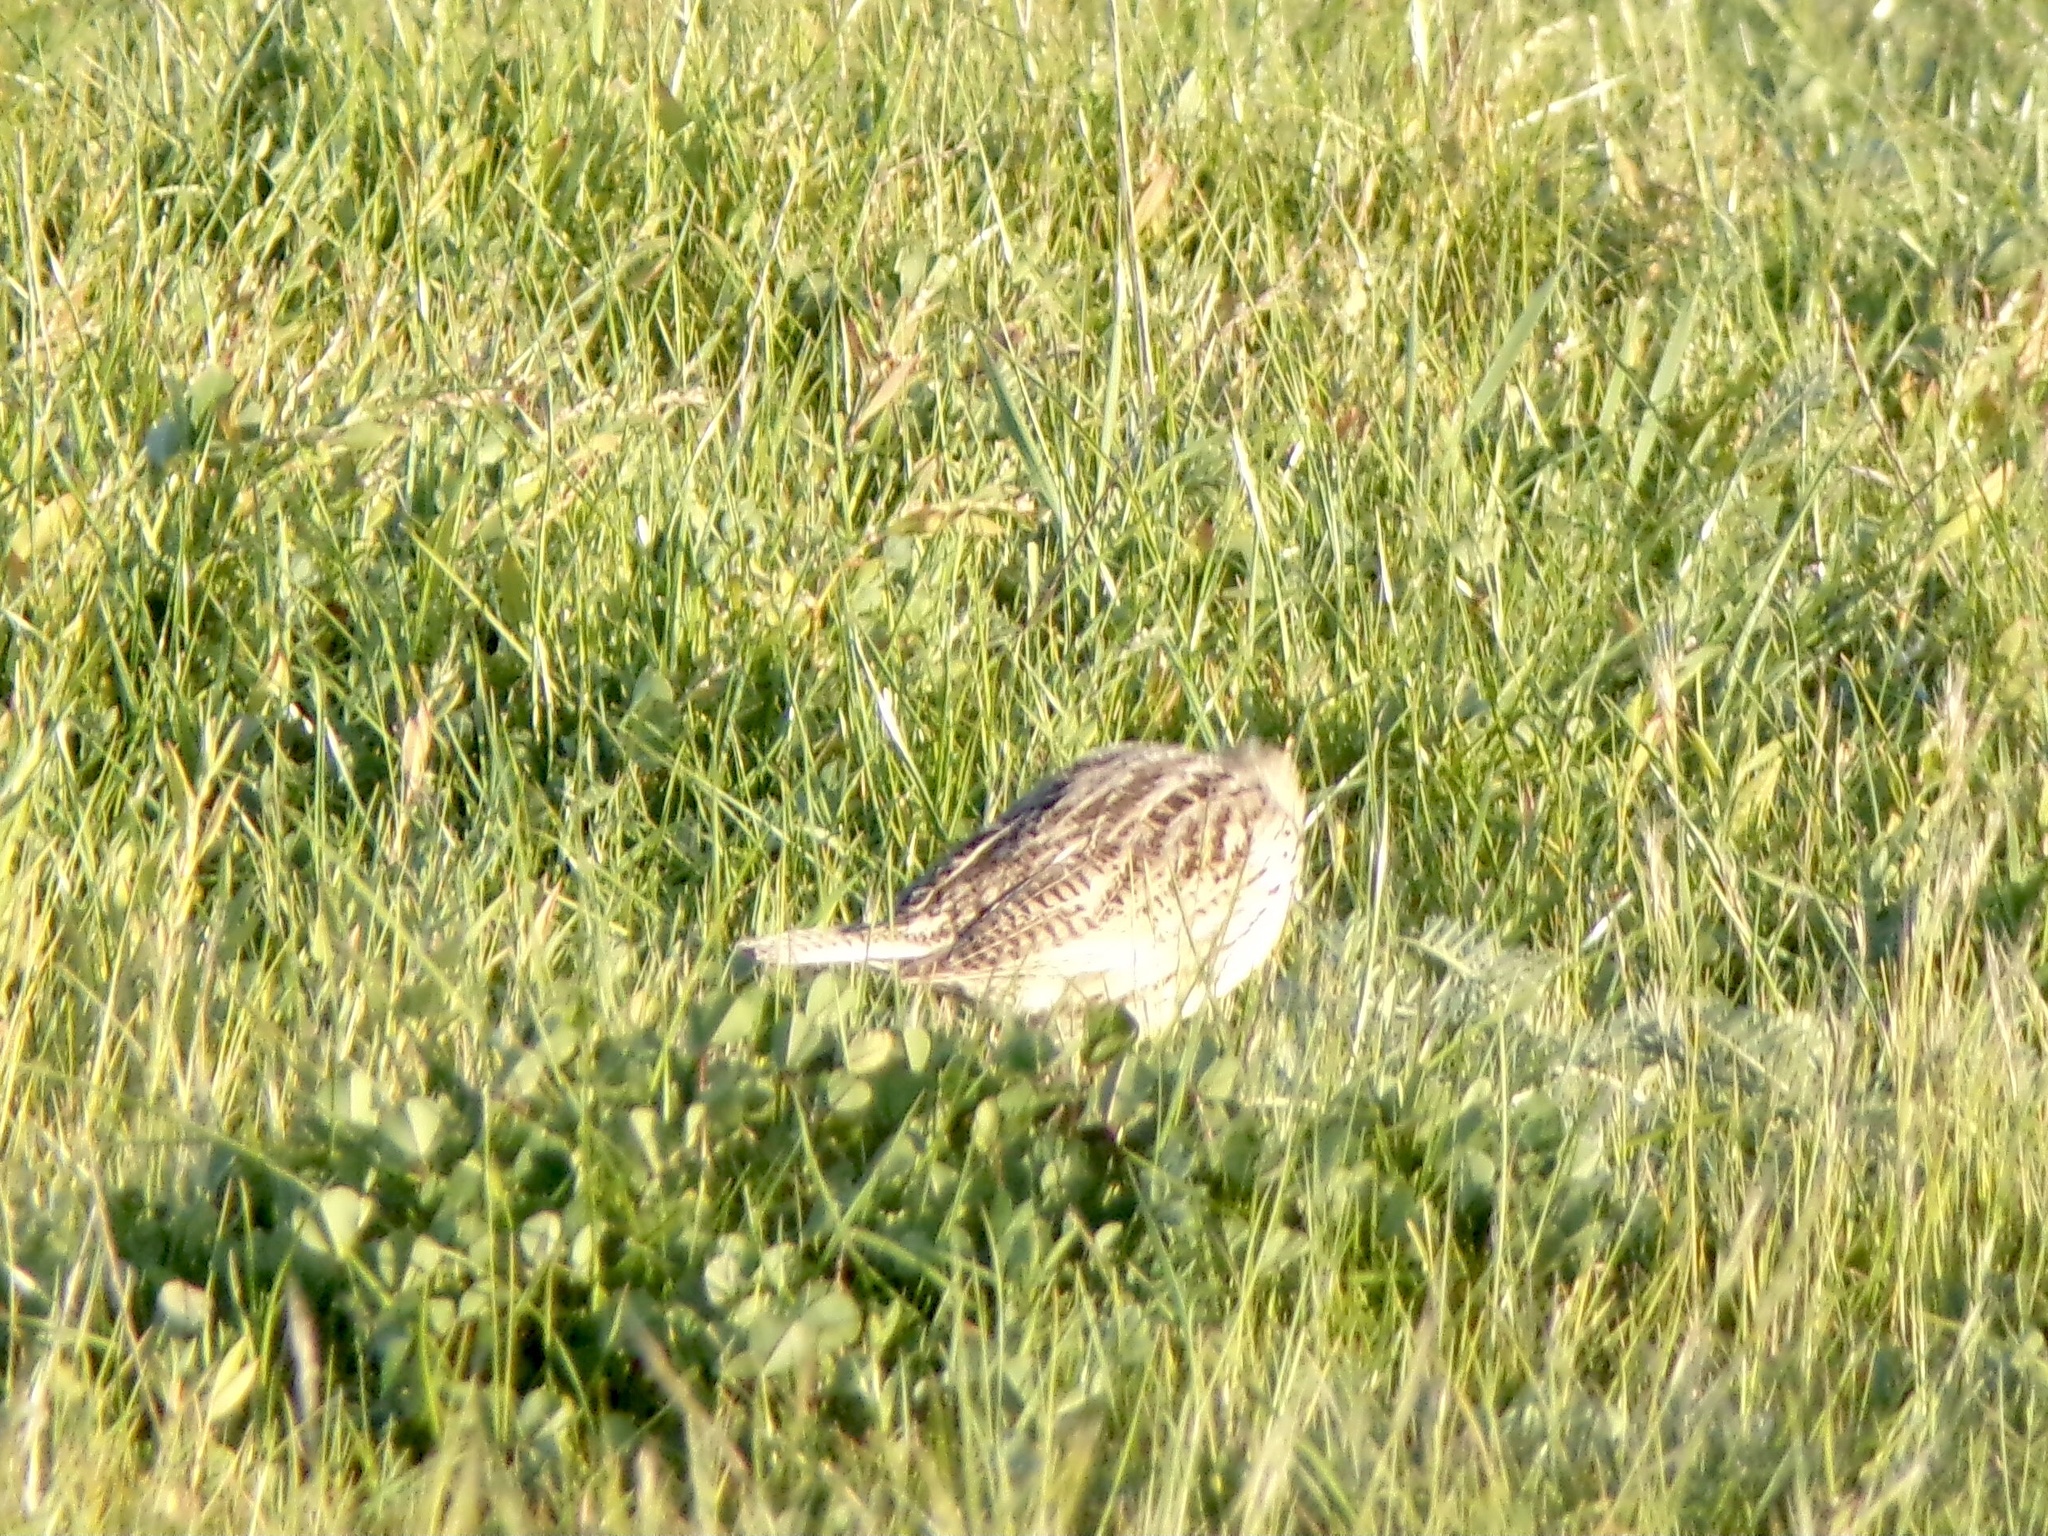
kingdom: Animalia
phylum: Chordata
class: Aves
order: Passeriformes
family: Icteridae
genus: Sturnella
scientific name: Sturnella neglecta
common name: Western meadowlark
